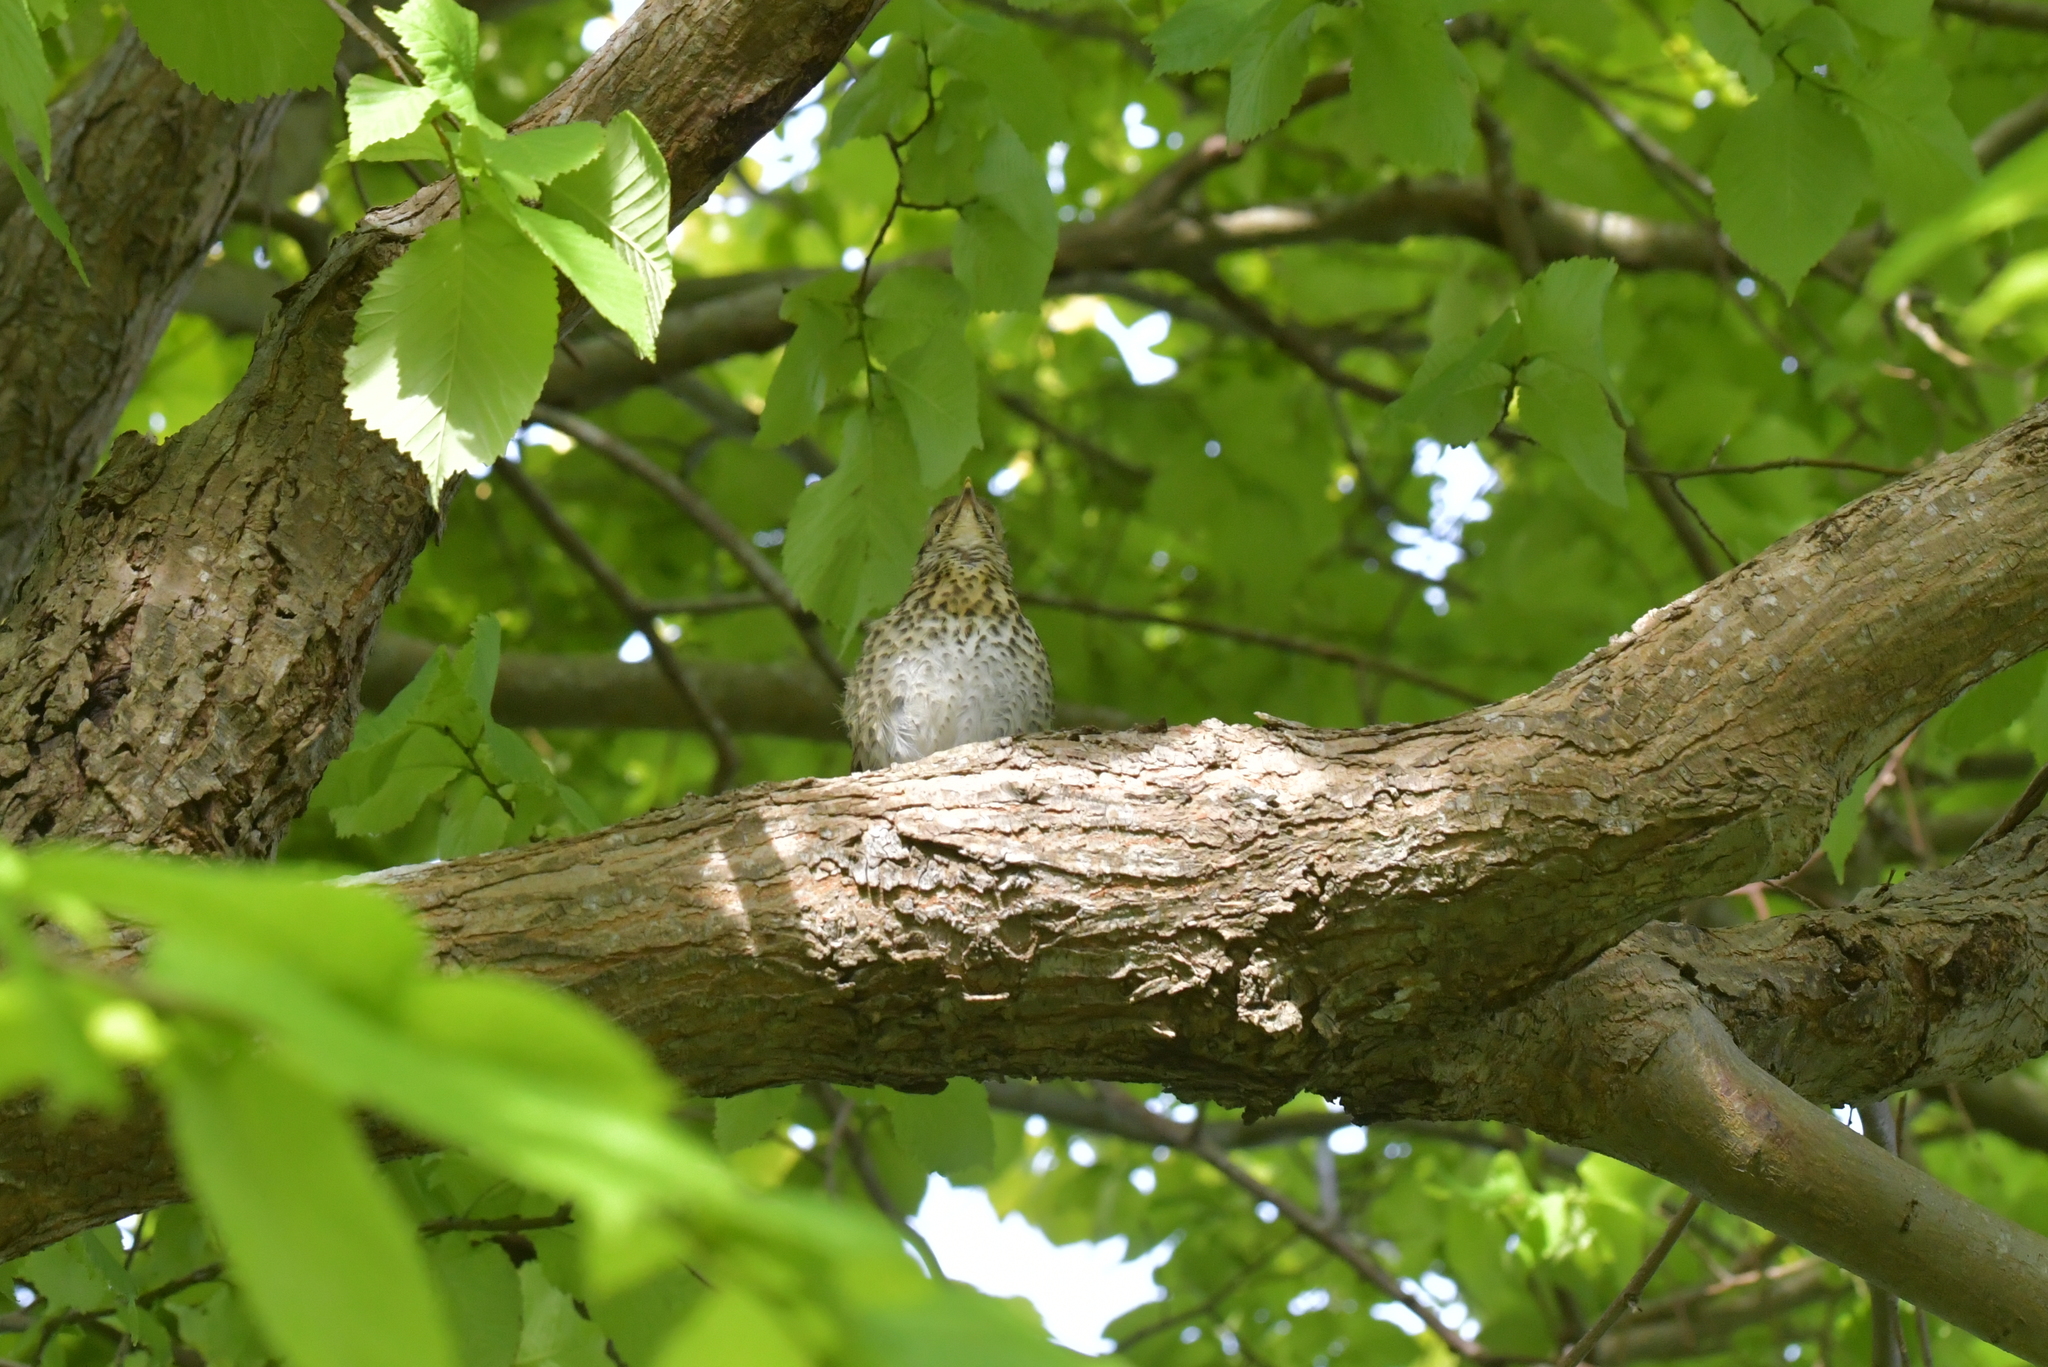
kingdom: Animalia
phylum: Chordata
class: Aves
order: Passeriformes
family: Turdidae
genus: Turdus
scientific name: Turdus philomelos
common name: Song thrush
